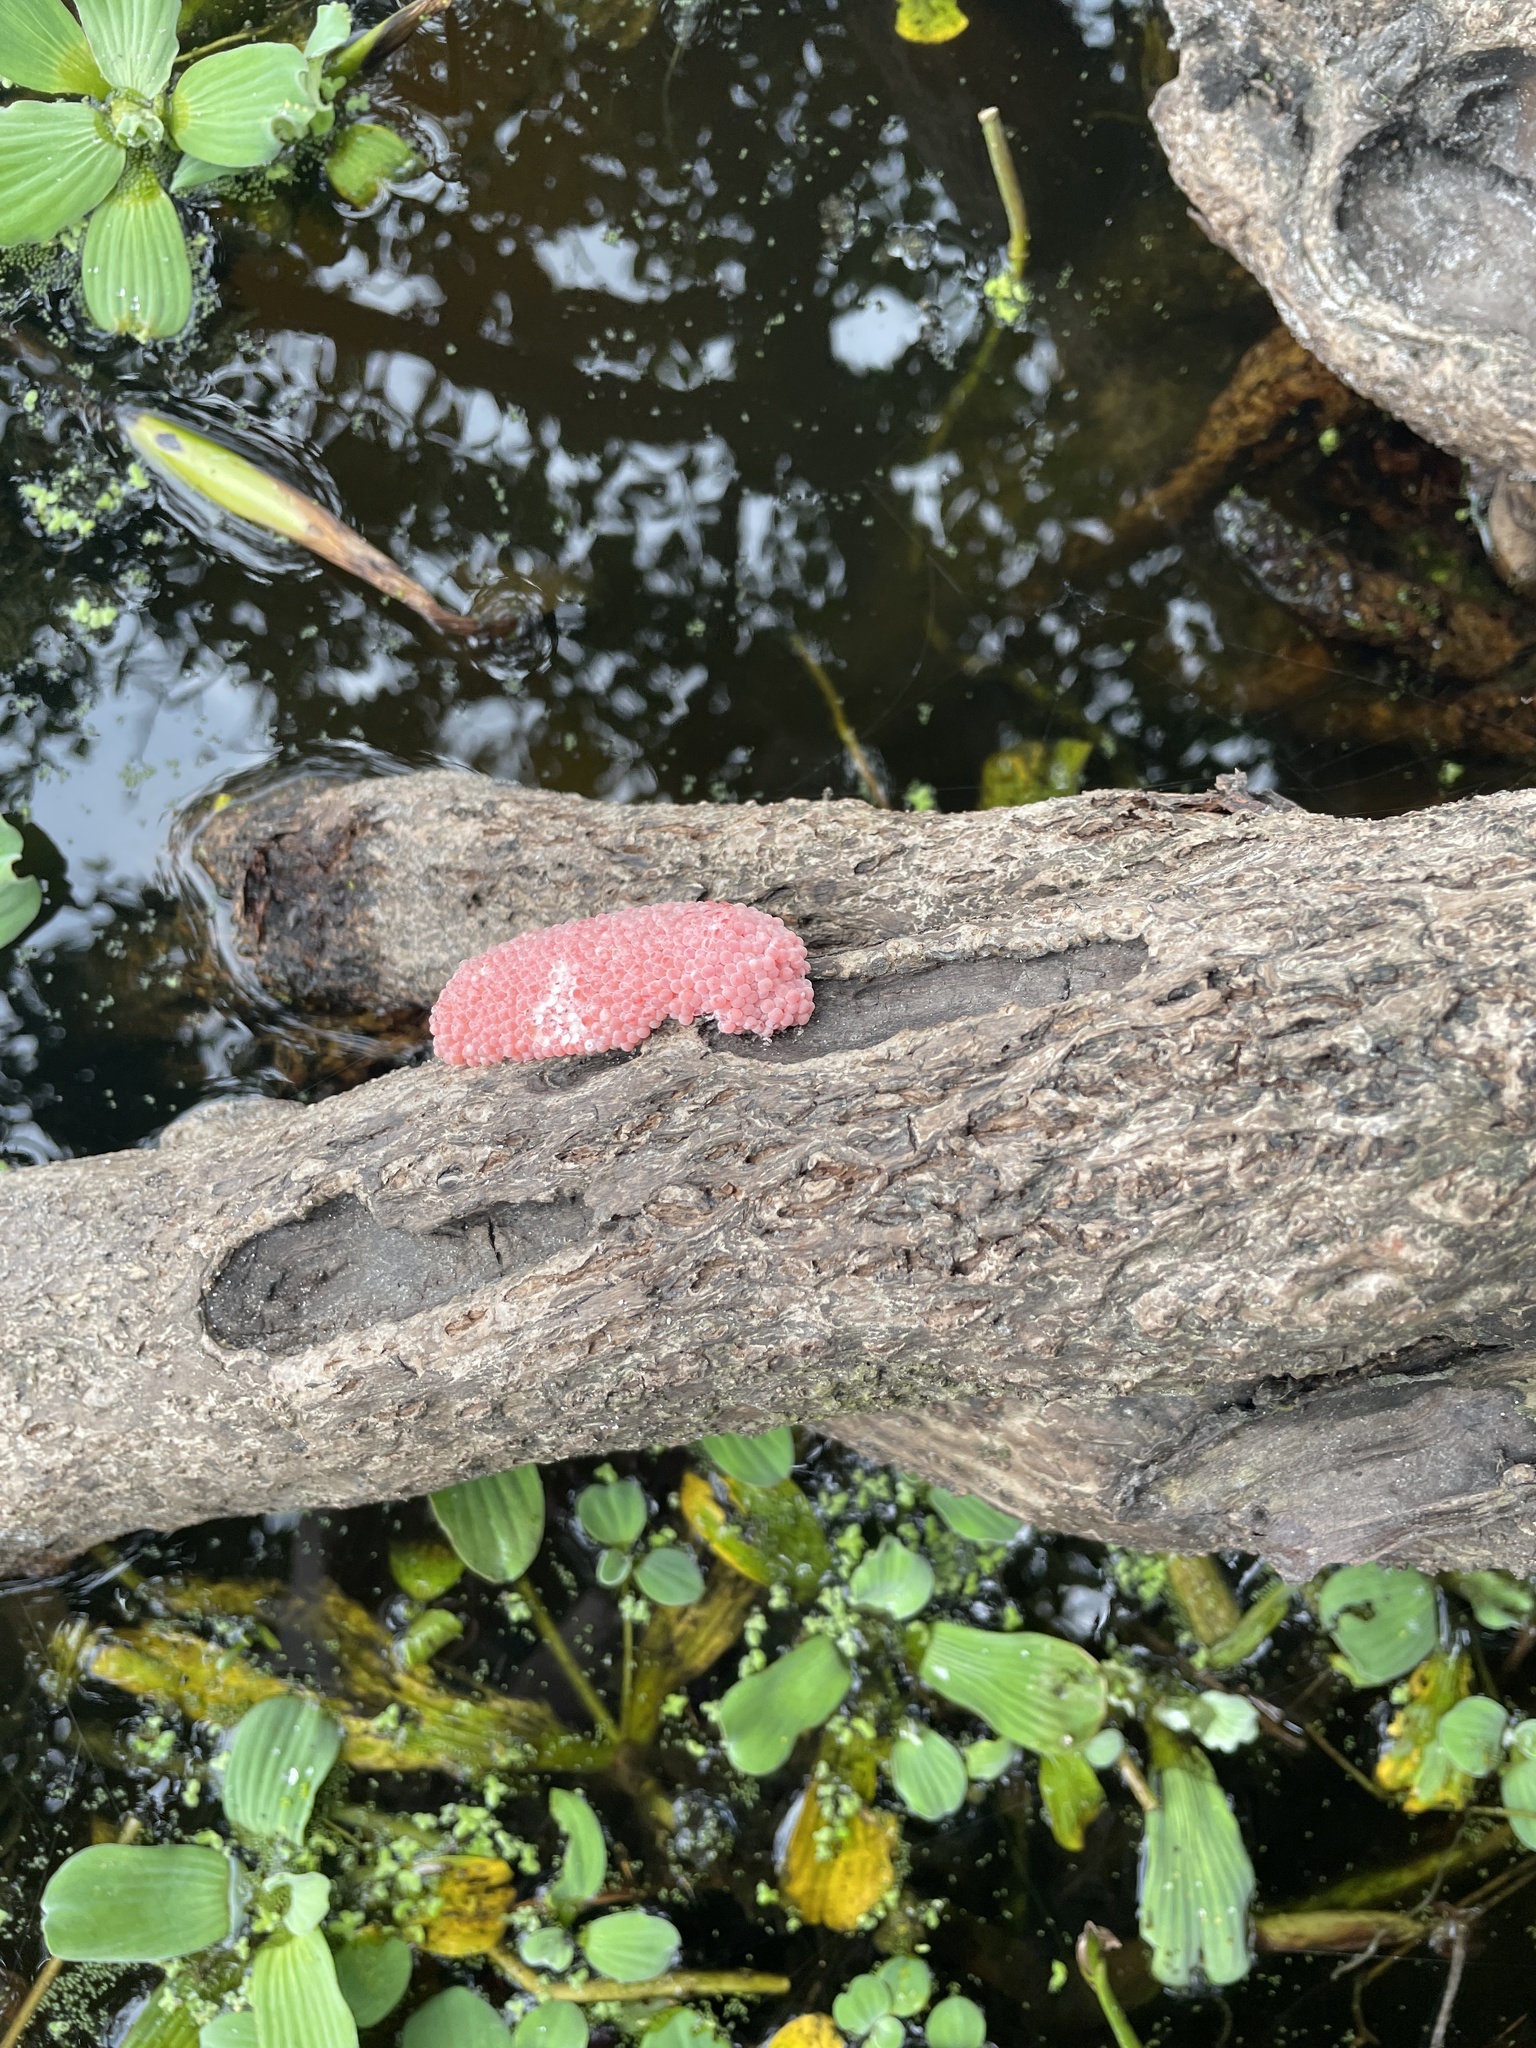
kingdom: Animalia
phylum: Mollusca
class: Gastropoda
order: Architaenioglossa
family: Ampullariidae
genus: Pomacea
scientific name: Pomacea maculata
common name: Giant applesnail
